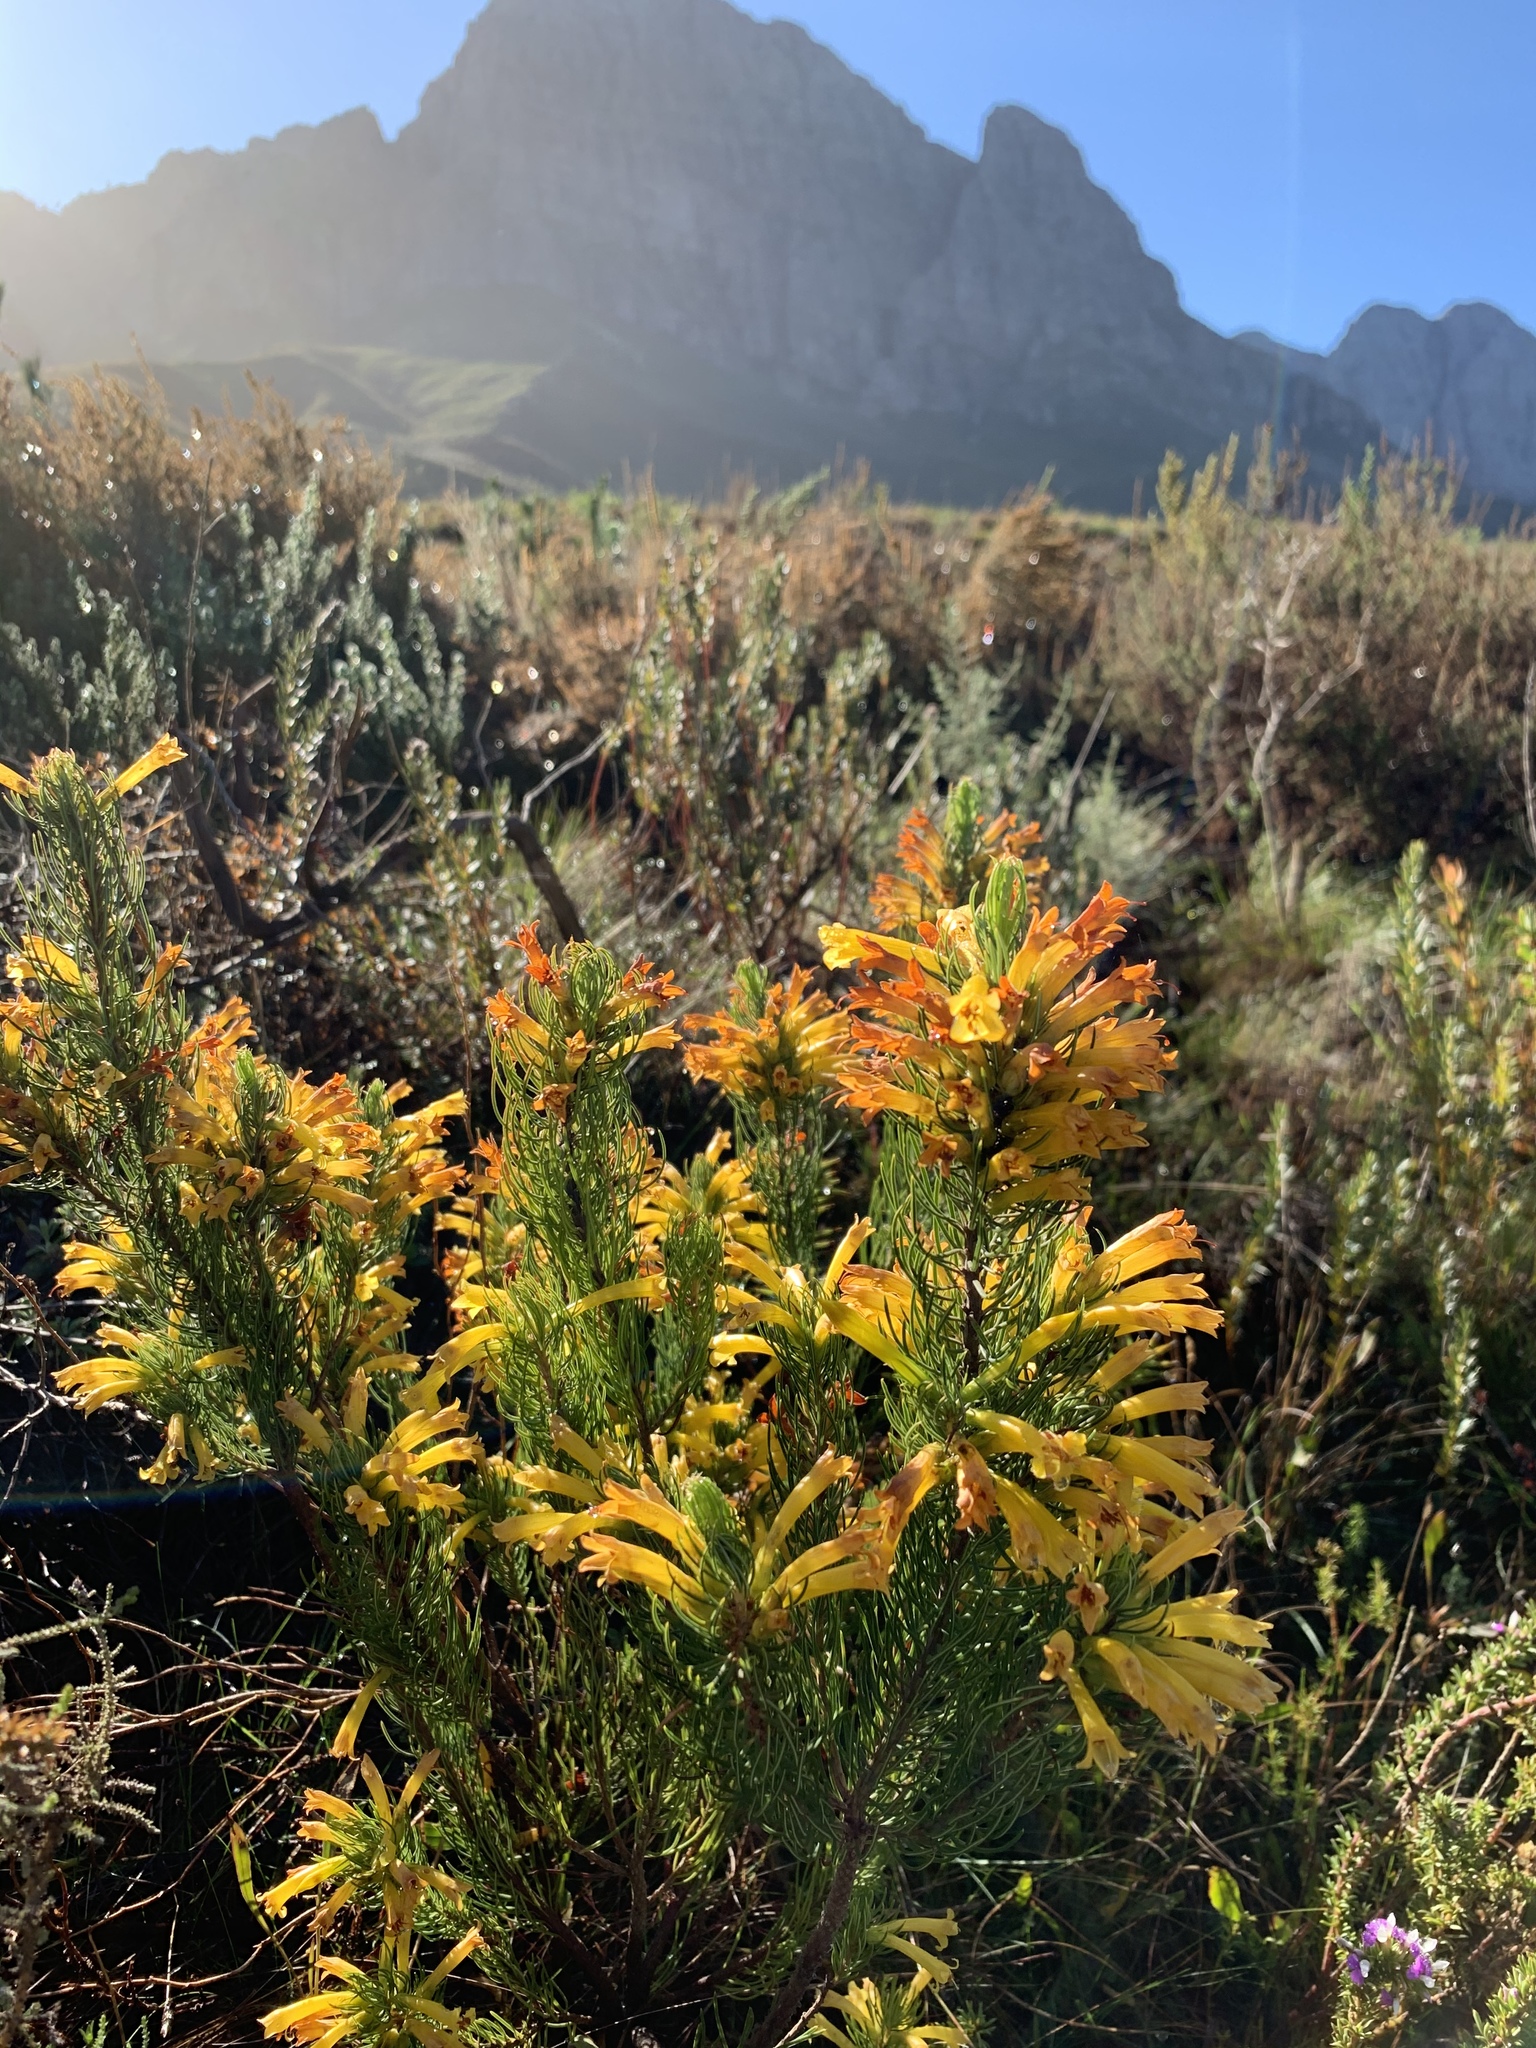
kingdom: Plantae
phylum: Tracheophyta
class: Magnoliopsida
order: Ericales
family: Ericaceae
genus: Erica
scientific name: Erica grandiflora
